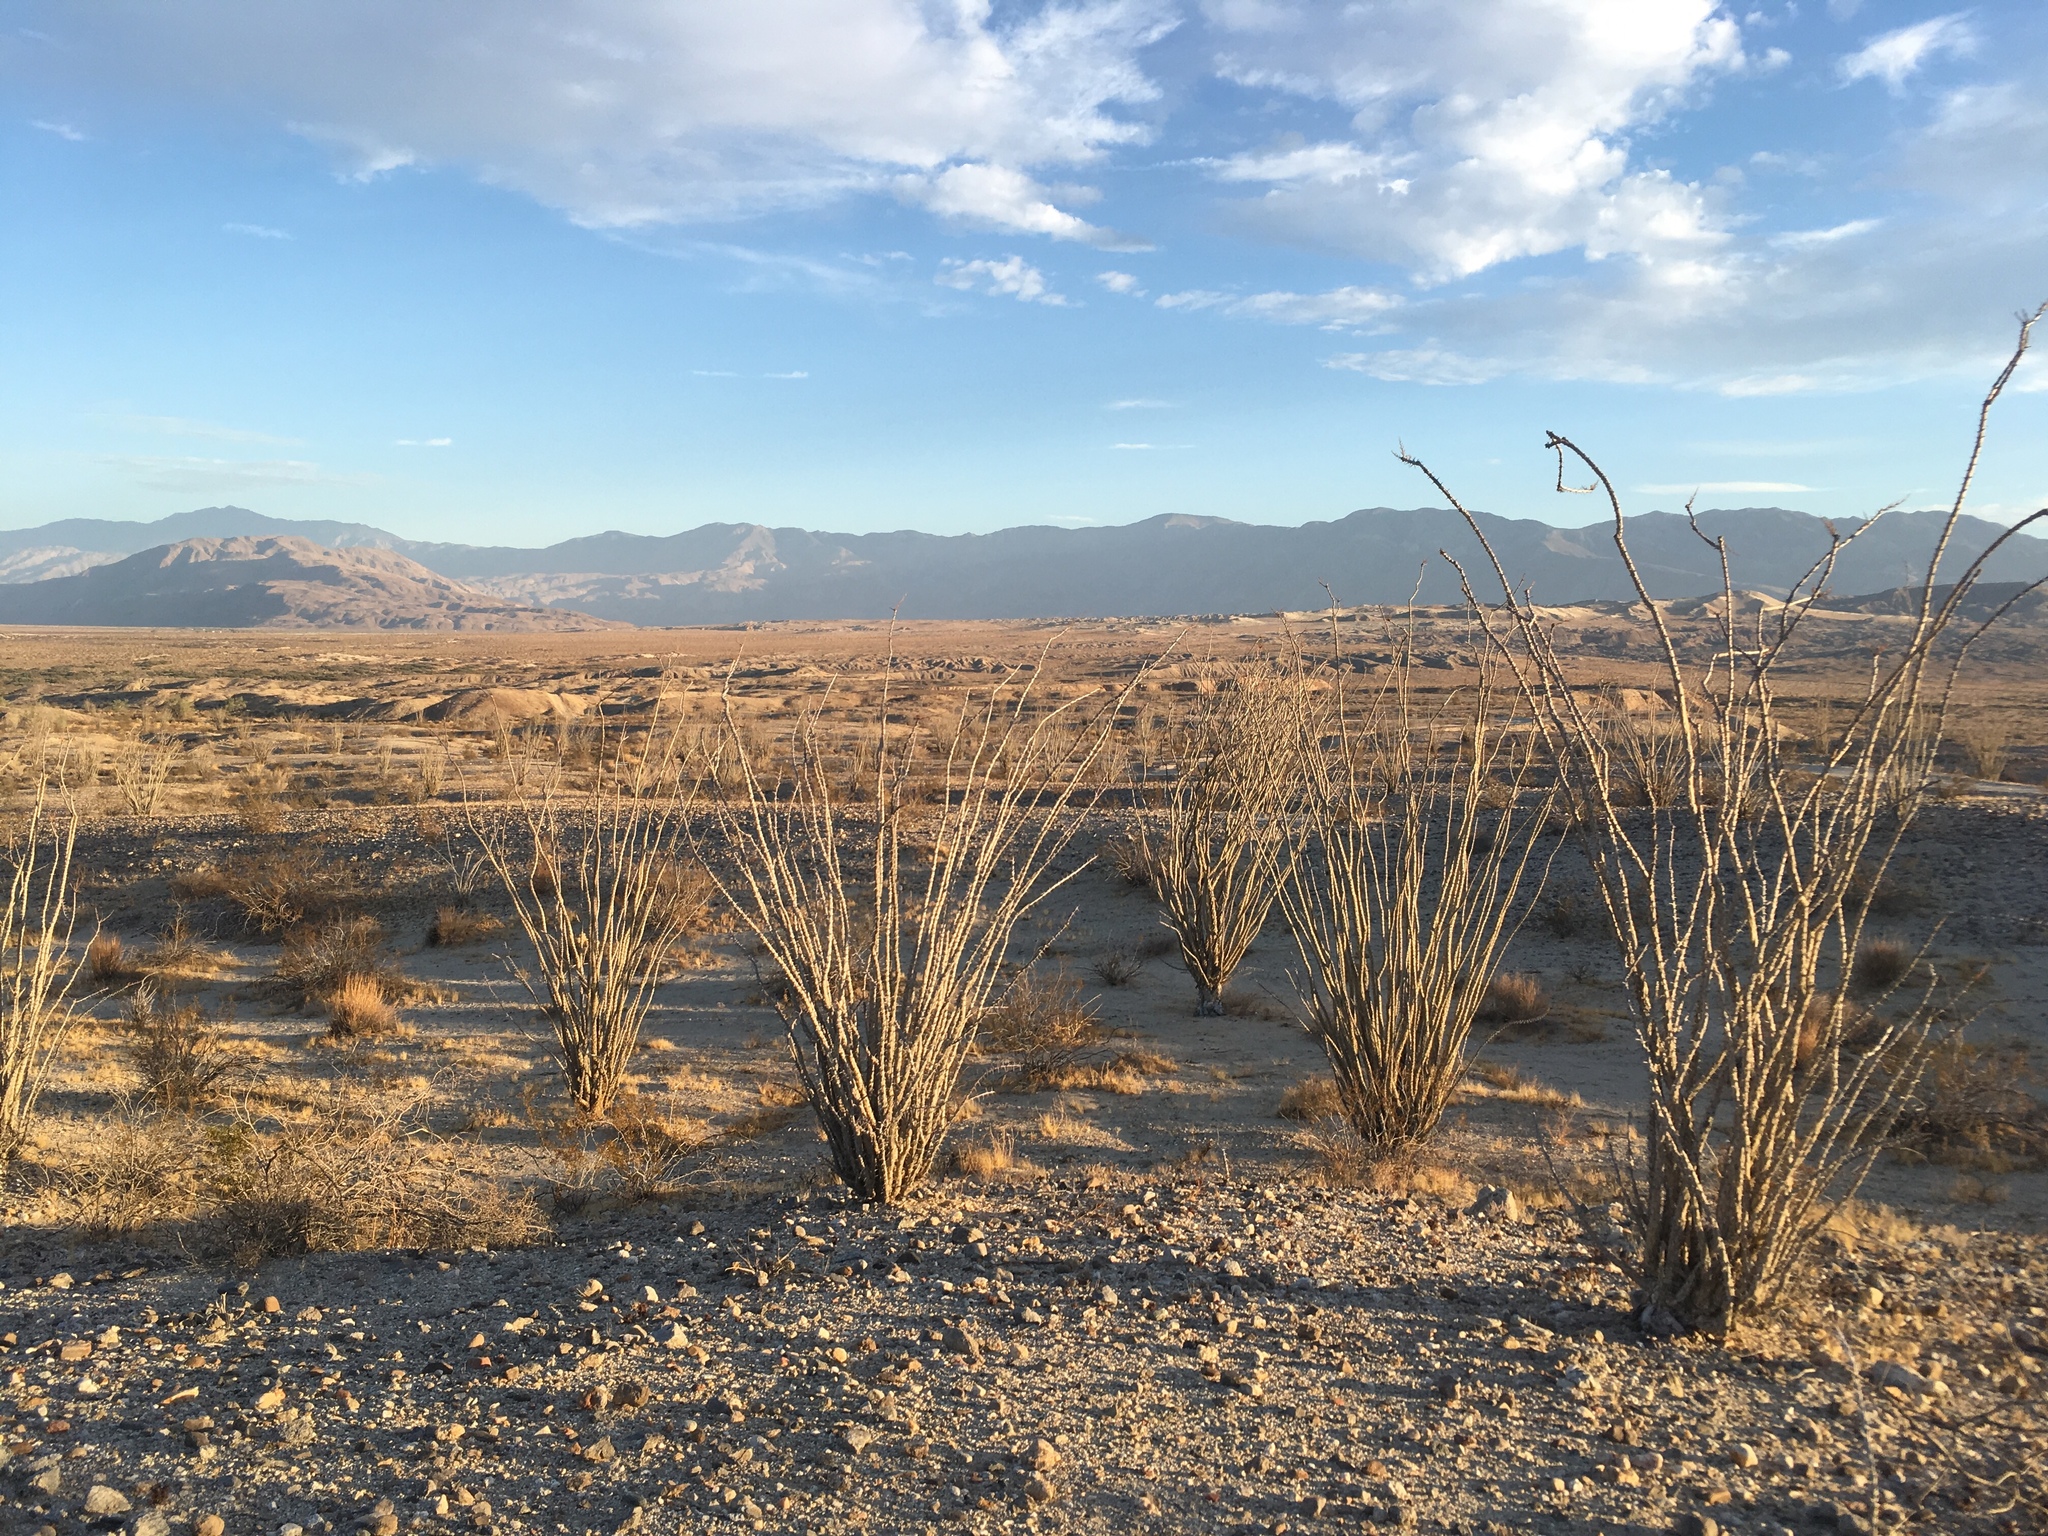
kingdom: Plantae
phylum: Tracheophyta
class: Magnoliopsida
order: Ericales
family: Fouquieriaceae
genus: Fouquieria
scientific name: Fouquieria splendens
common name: Vine-cactus
